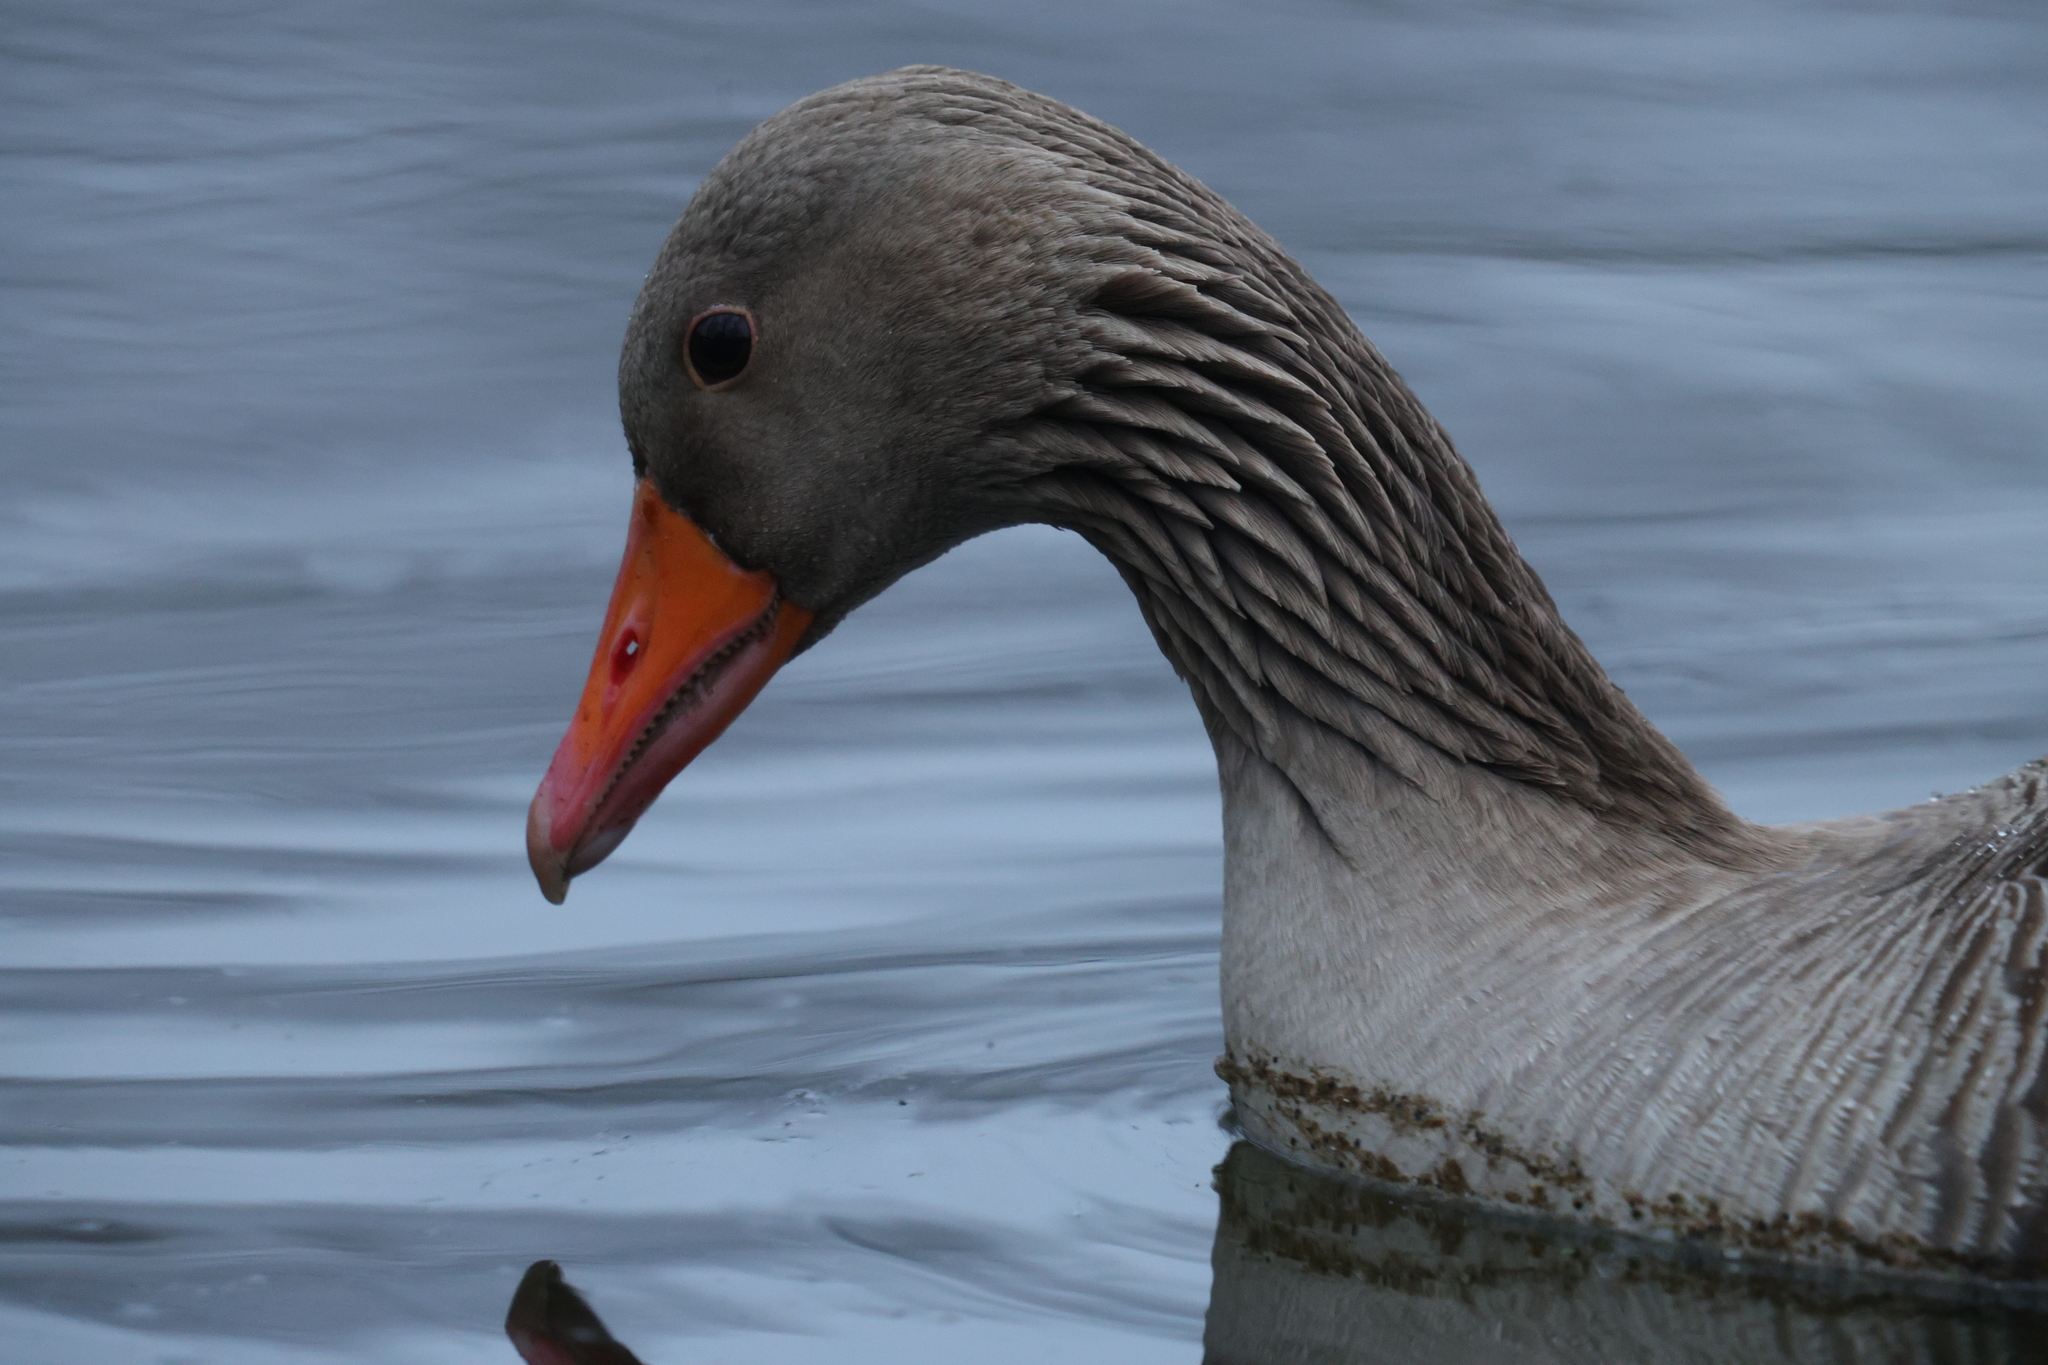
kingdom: Animalia
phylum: Chordata
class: Aves
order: Anseriformes
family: Anatidae
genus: Anser
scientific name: Anser anser
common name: Greylag goose
